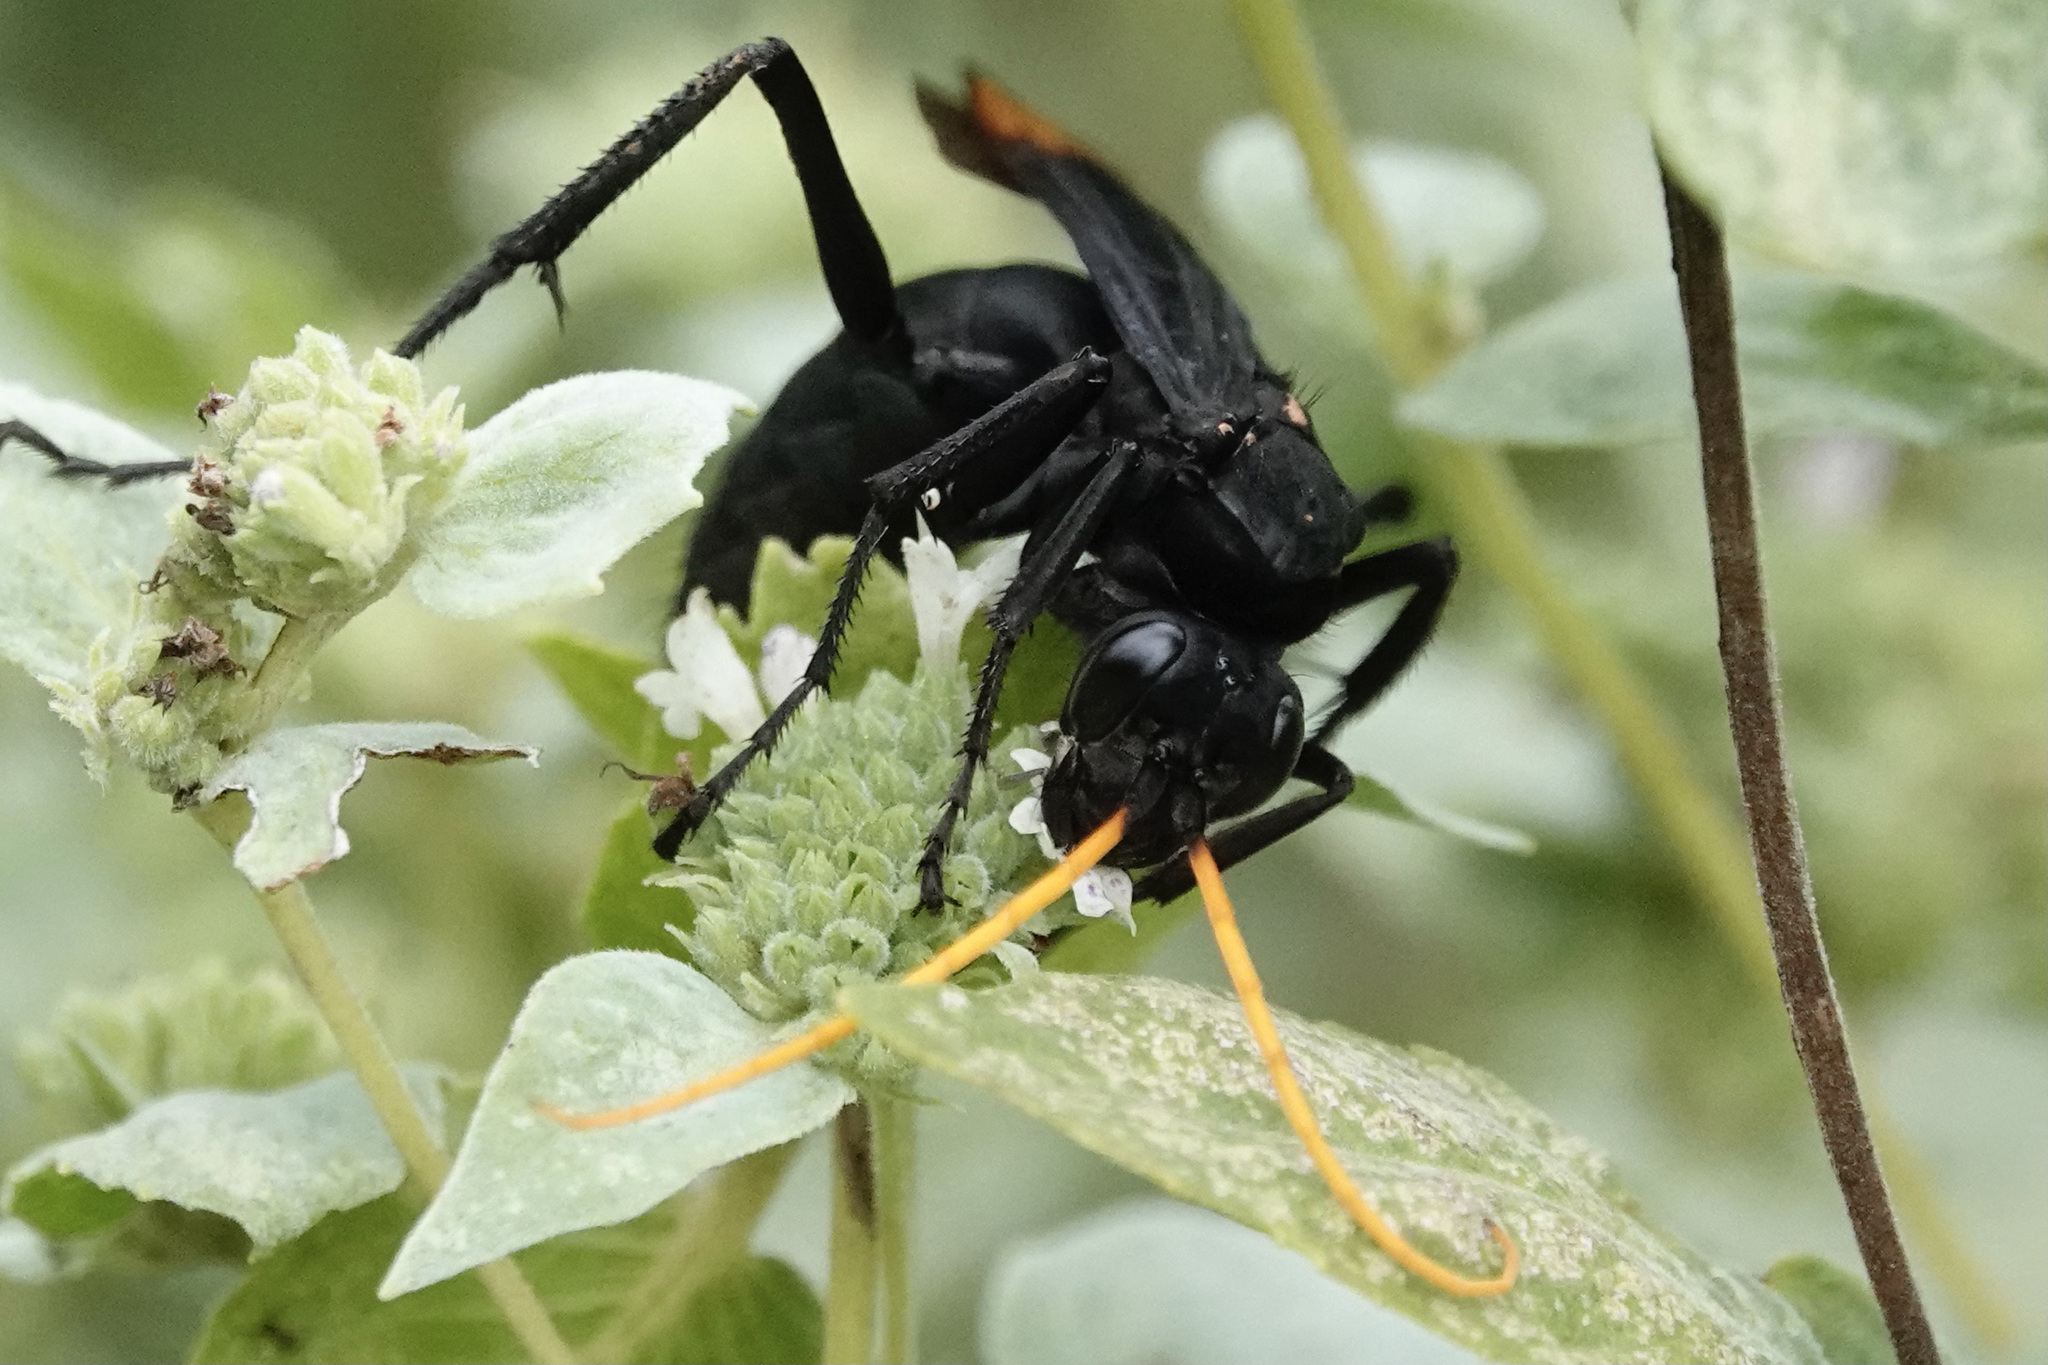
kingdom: Animalia
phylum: Arthropoda
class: Insecta
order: Hymenoptera
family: Pompilidae
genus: Entypus
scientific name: Entypus unifasciatus
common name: Eastern tawny-horned spider wasp
